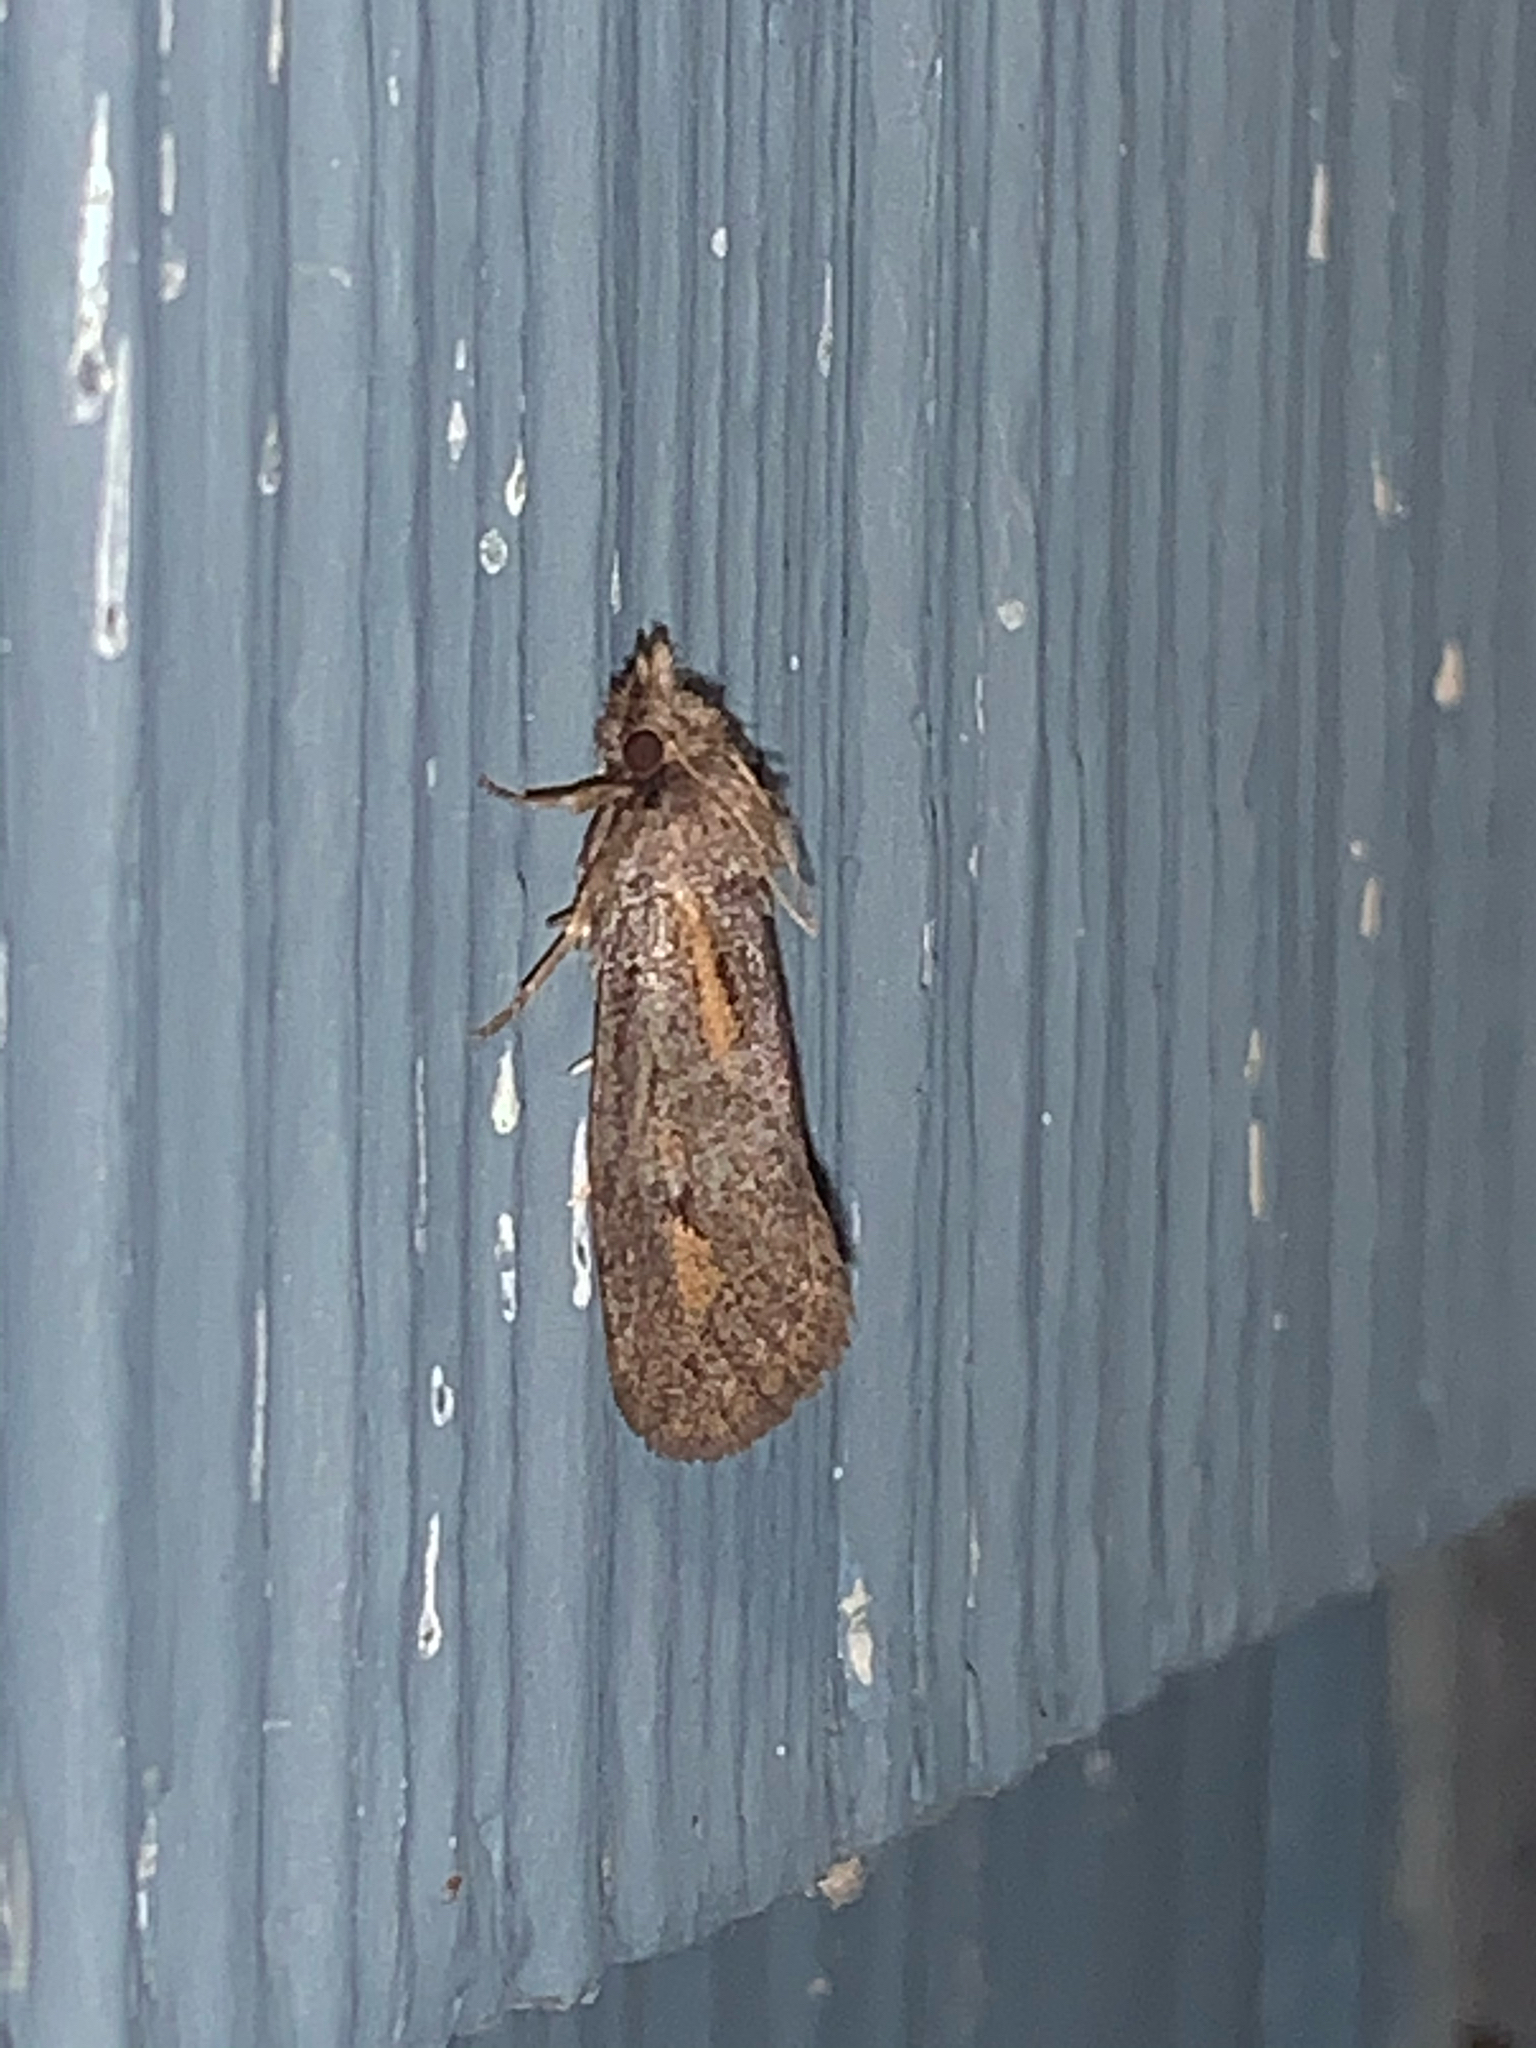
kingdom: Animalia
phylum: Arthropoda
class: Insecta
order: Lepidoptera
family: Tineidae
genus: Acrolophus
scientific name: Acrolophus popeanella
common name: Clemens' grass tubeworm moth
